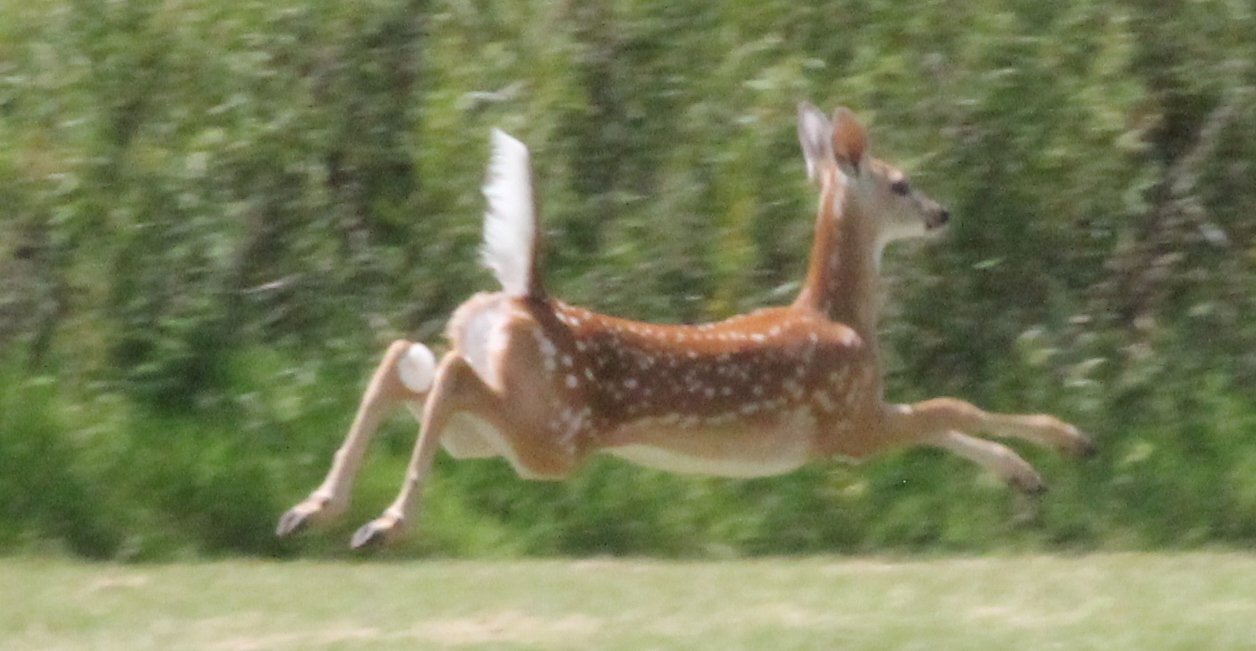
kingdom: Animalia
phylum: Chordata
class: Mammalia
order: Artiodactyla
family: Cervidae
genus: Odocoileus
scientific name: Odocoileus virginianus
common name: White-tailed deer
